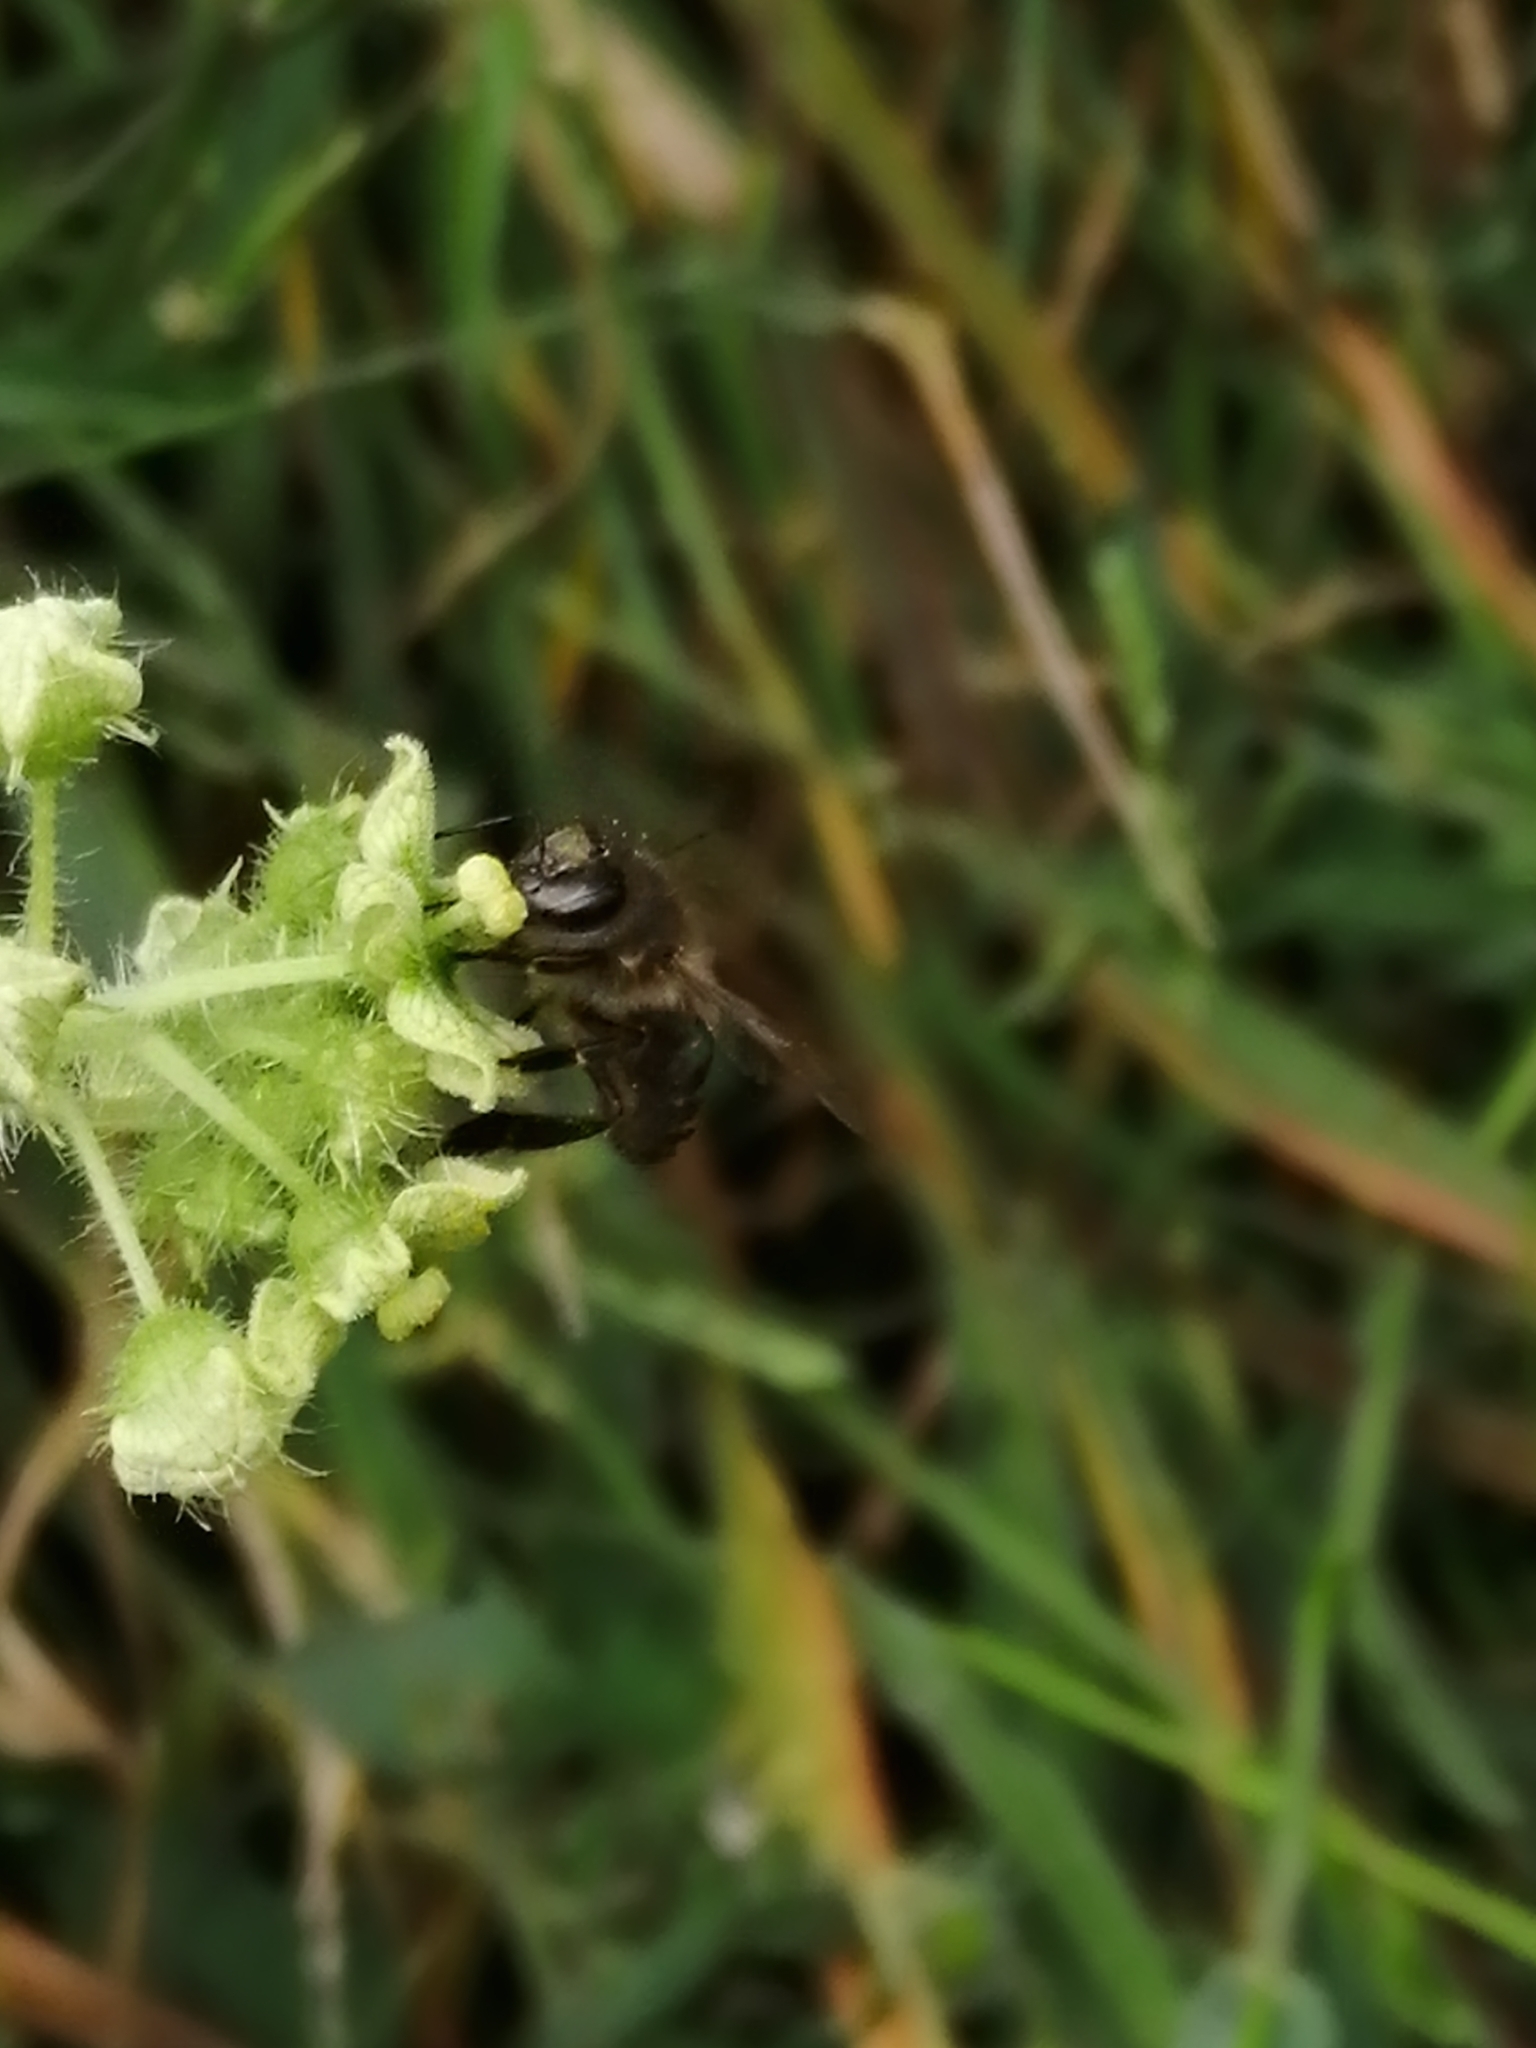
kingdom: Animalia
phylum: Arthropoda
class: Insecta
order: Hymenoptera
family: Apidae
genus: Apis
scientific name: Apis mellifera
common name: Honey bee
